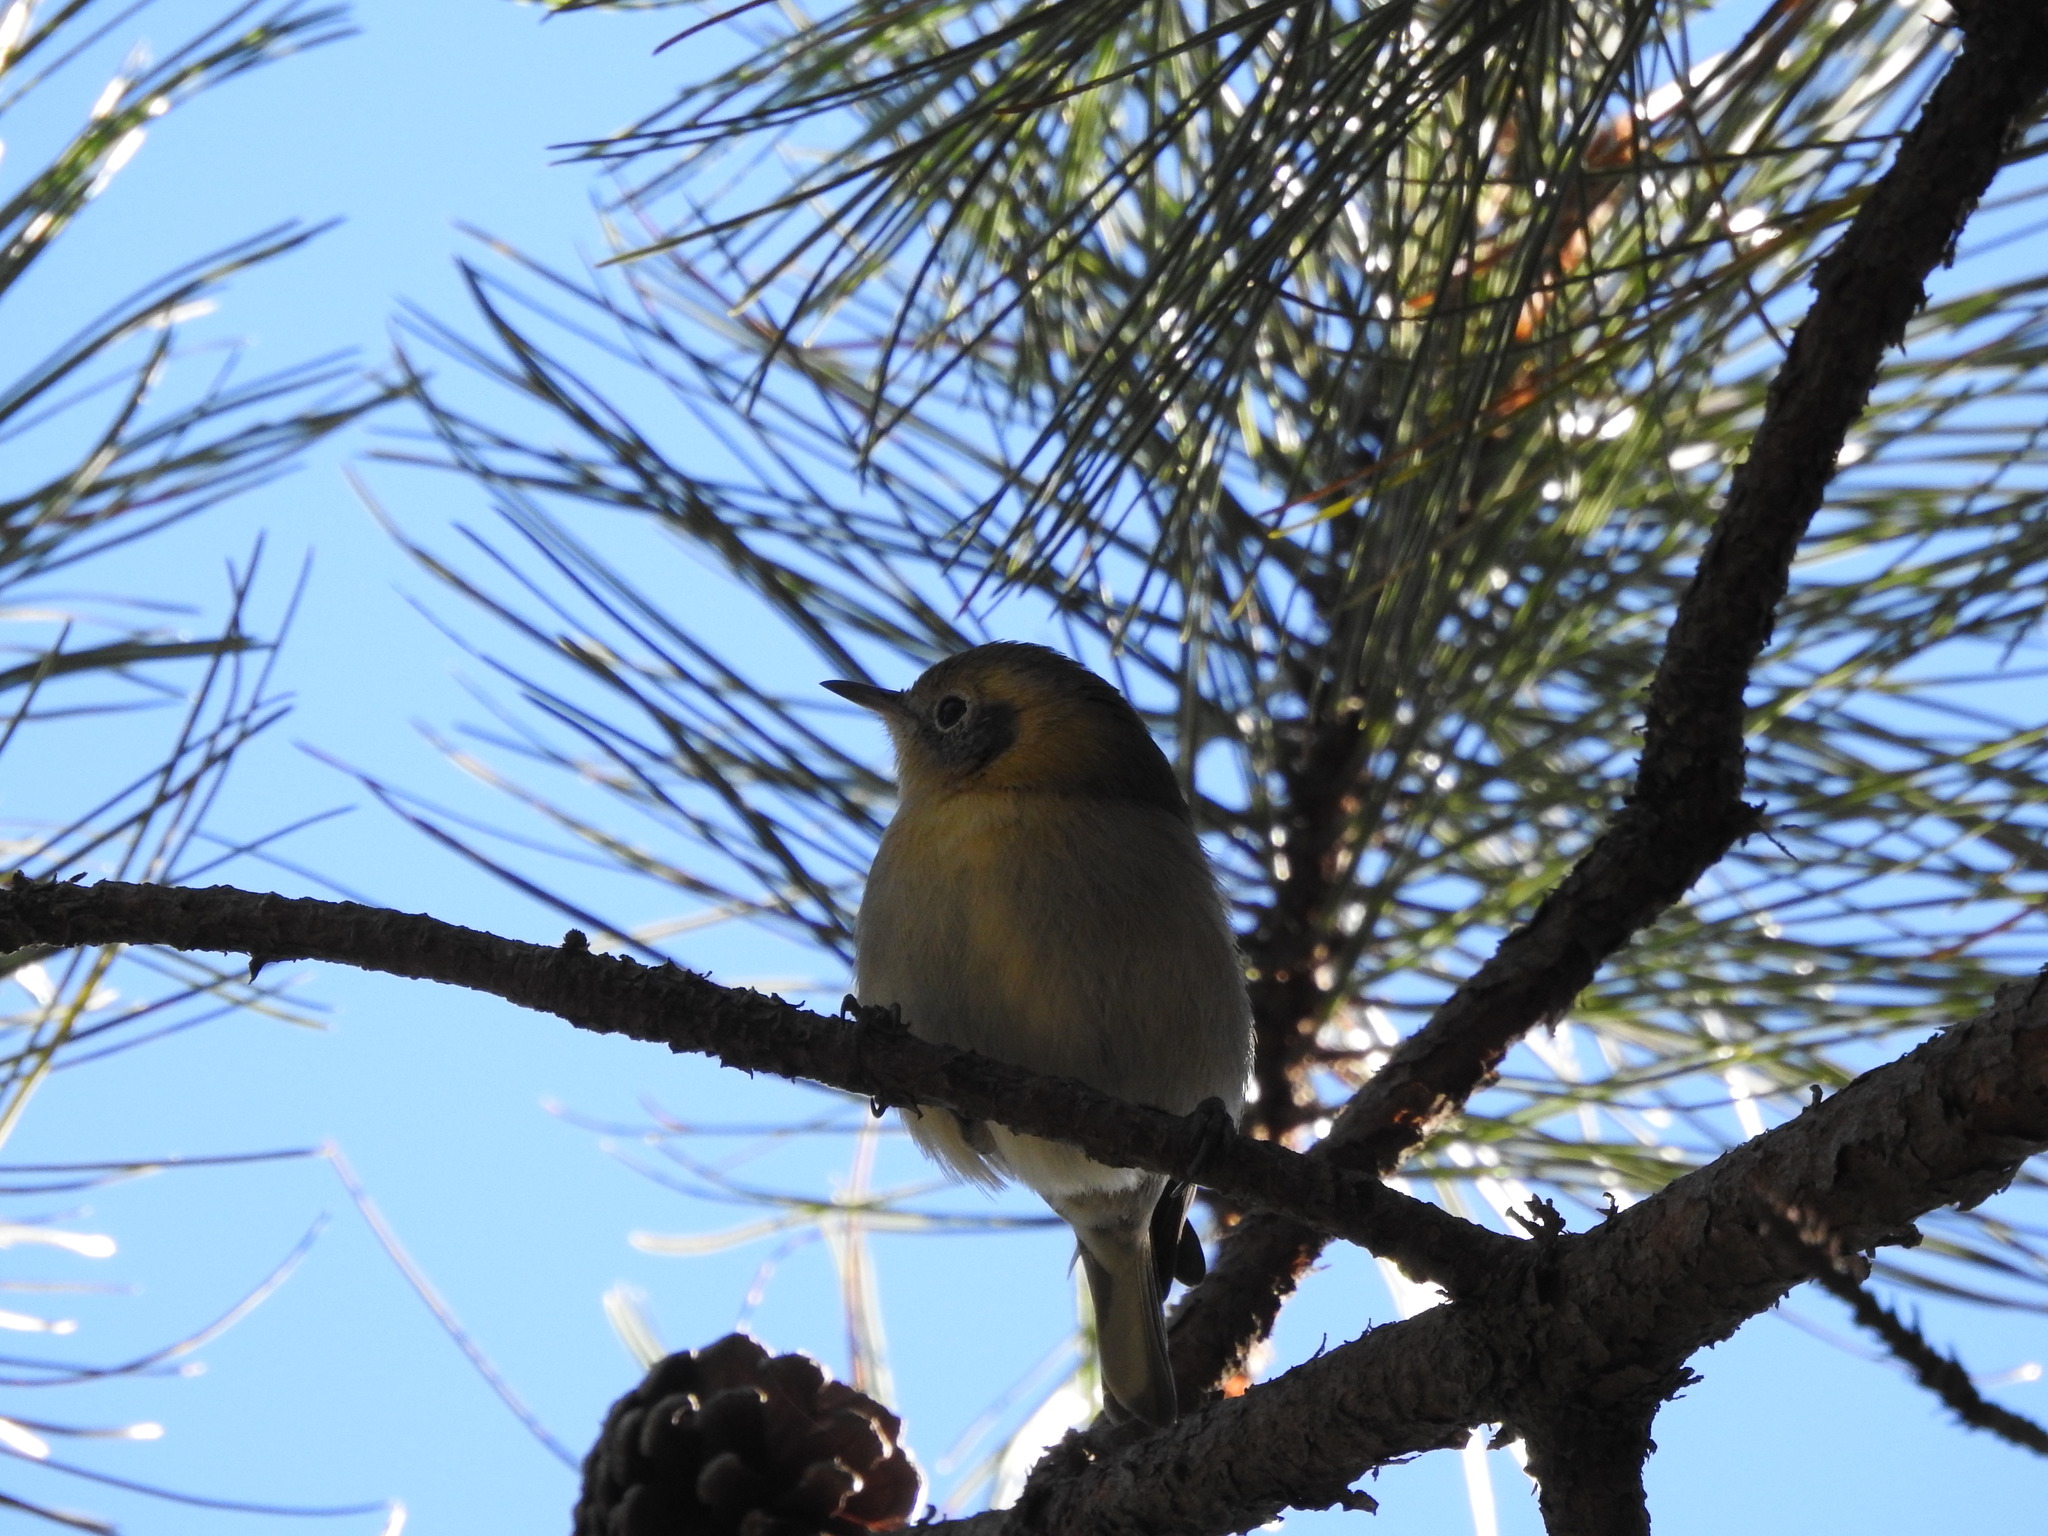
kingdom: Animalia
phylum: Chordata
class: Aves
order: Passeriformes
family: Peucedramidae
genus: Peucedramus
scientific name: Peucedramus taeniatus
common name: Olive warbler
